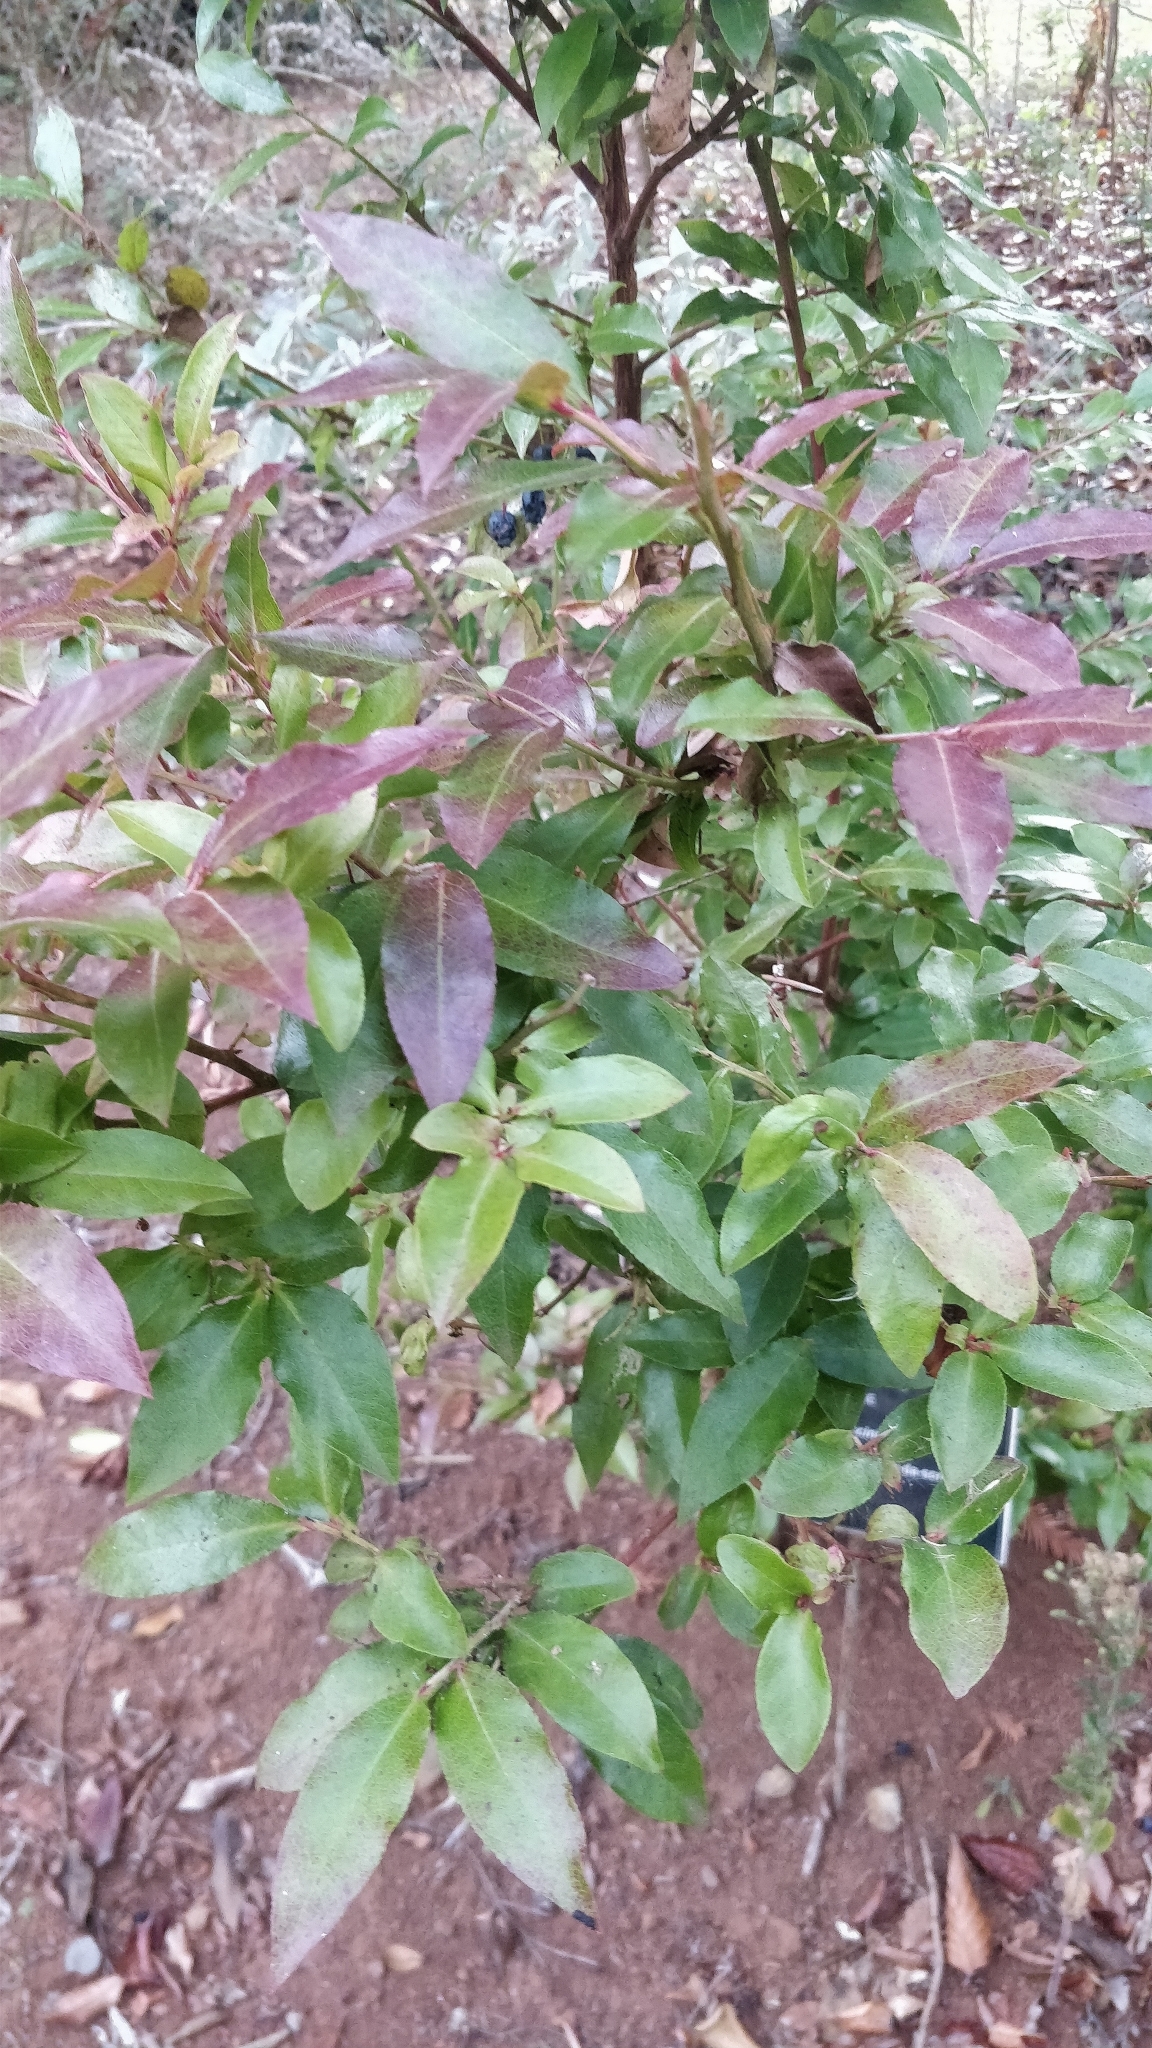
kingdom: Plantae
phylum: Tracheophyta
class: Magnoliopsida
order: Ericales
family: Ericaceae
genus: Vaccinium
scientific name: Vaccinium padifolium
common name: Madeiran blueberry
